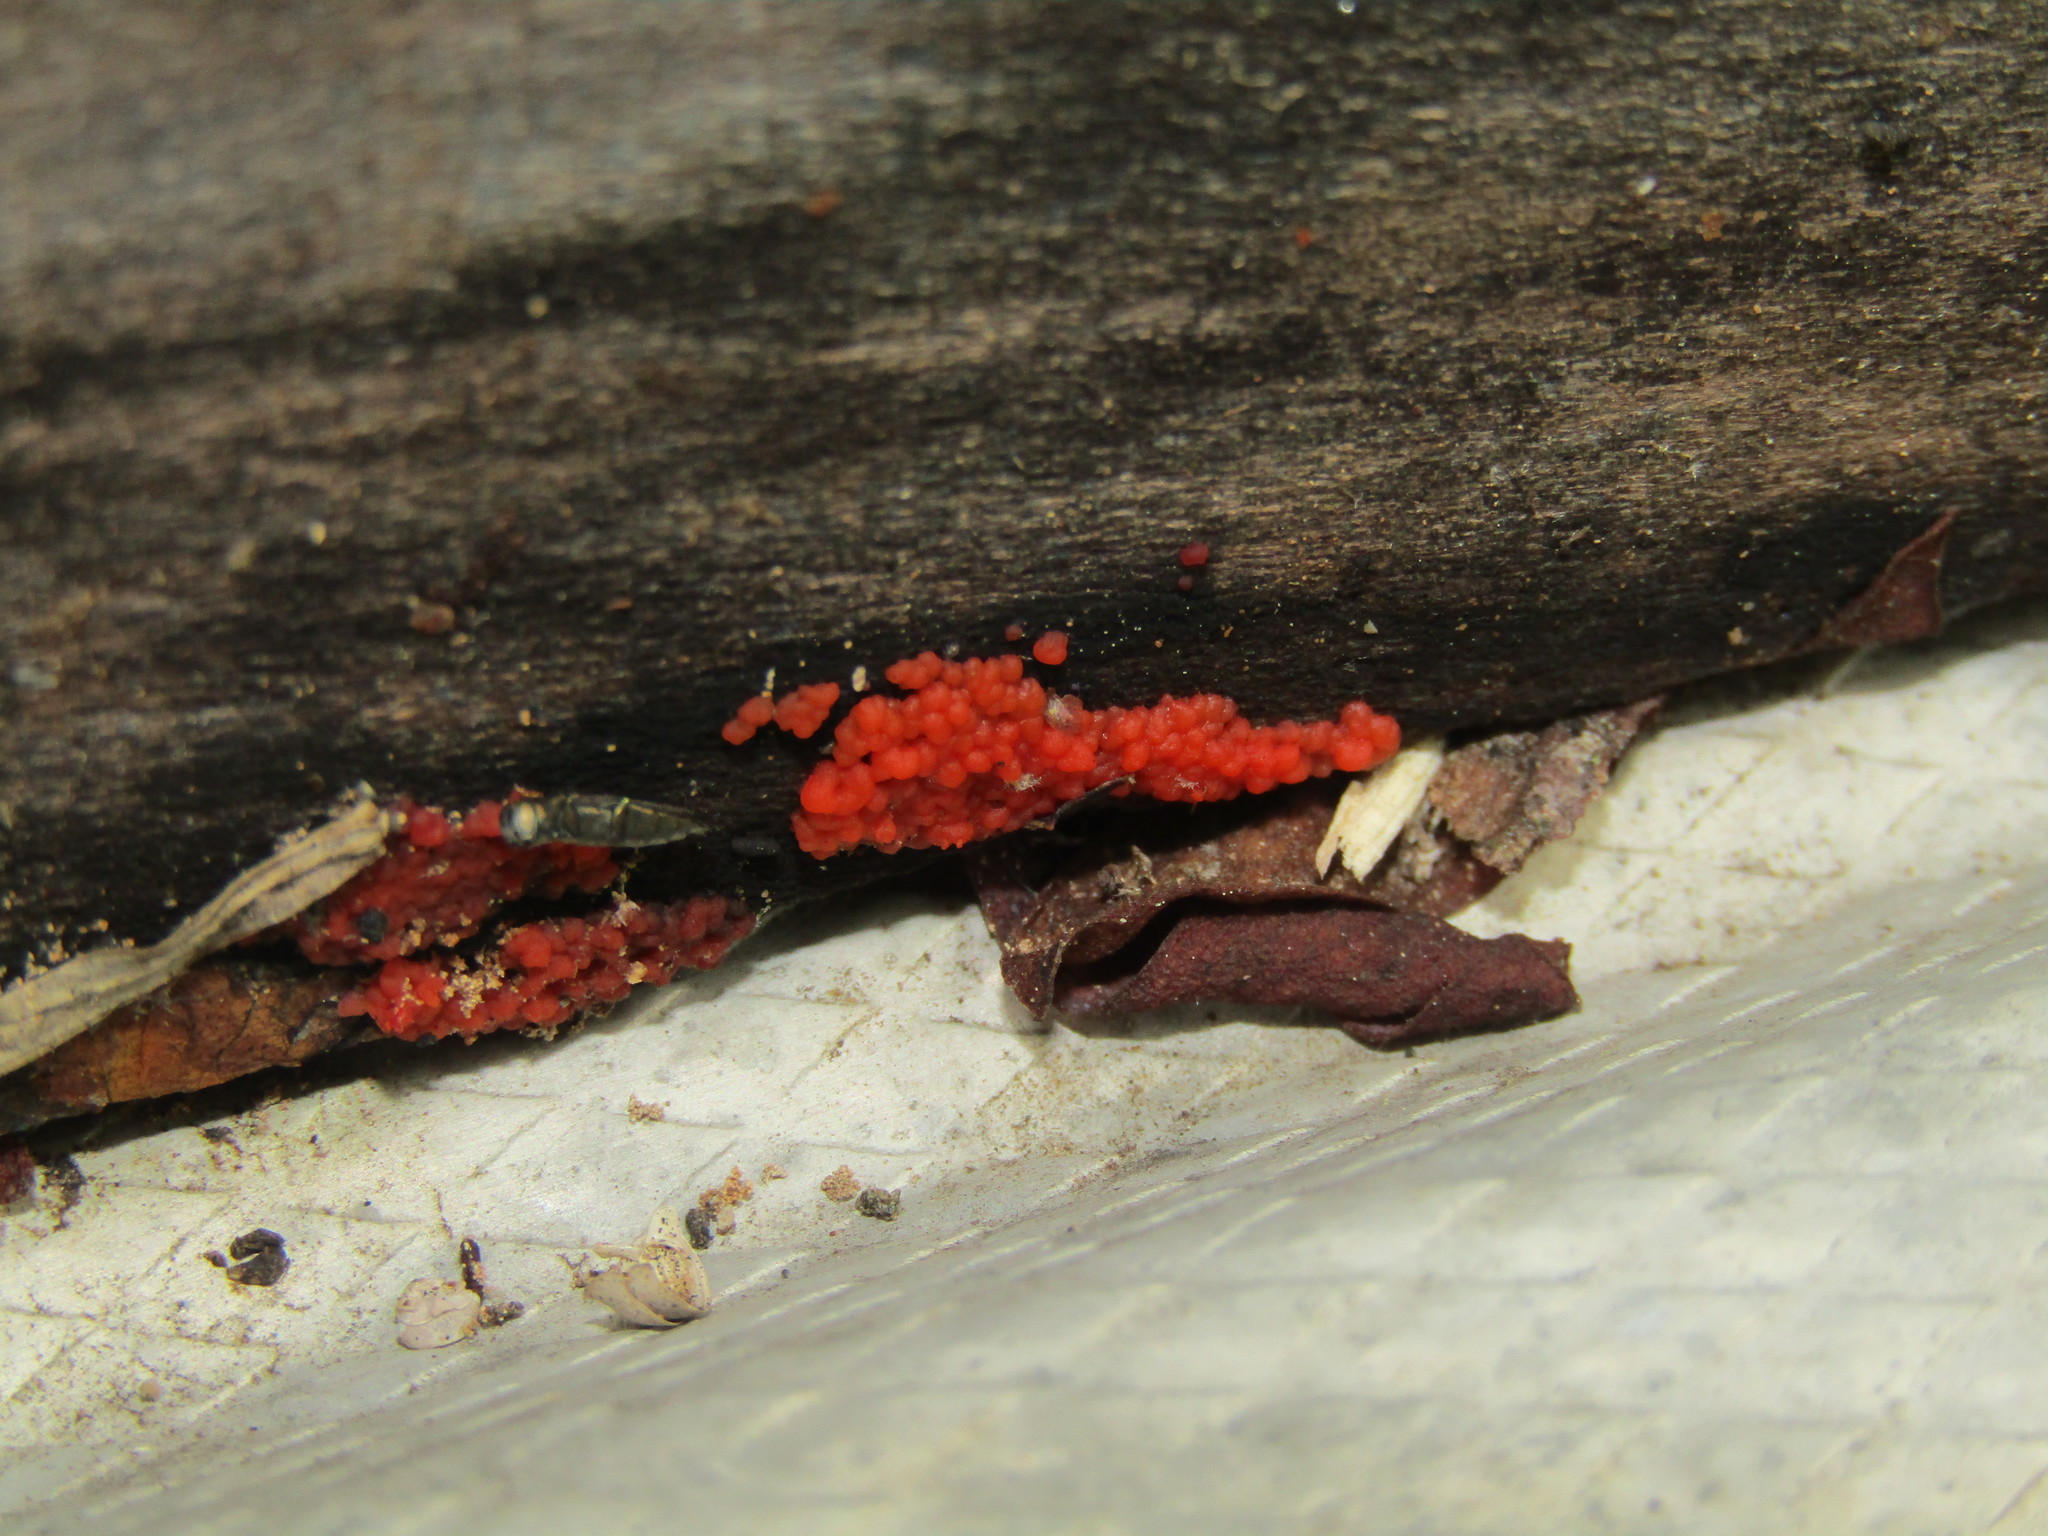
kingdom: Fungi
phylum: Basidiomycota
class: Agaricomycetes
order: Cantharellales
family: Tulasnellaceae
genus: Tulasnella
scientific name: Tulasnella aurantiaca
